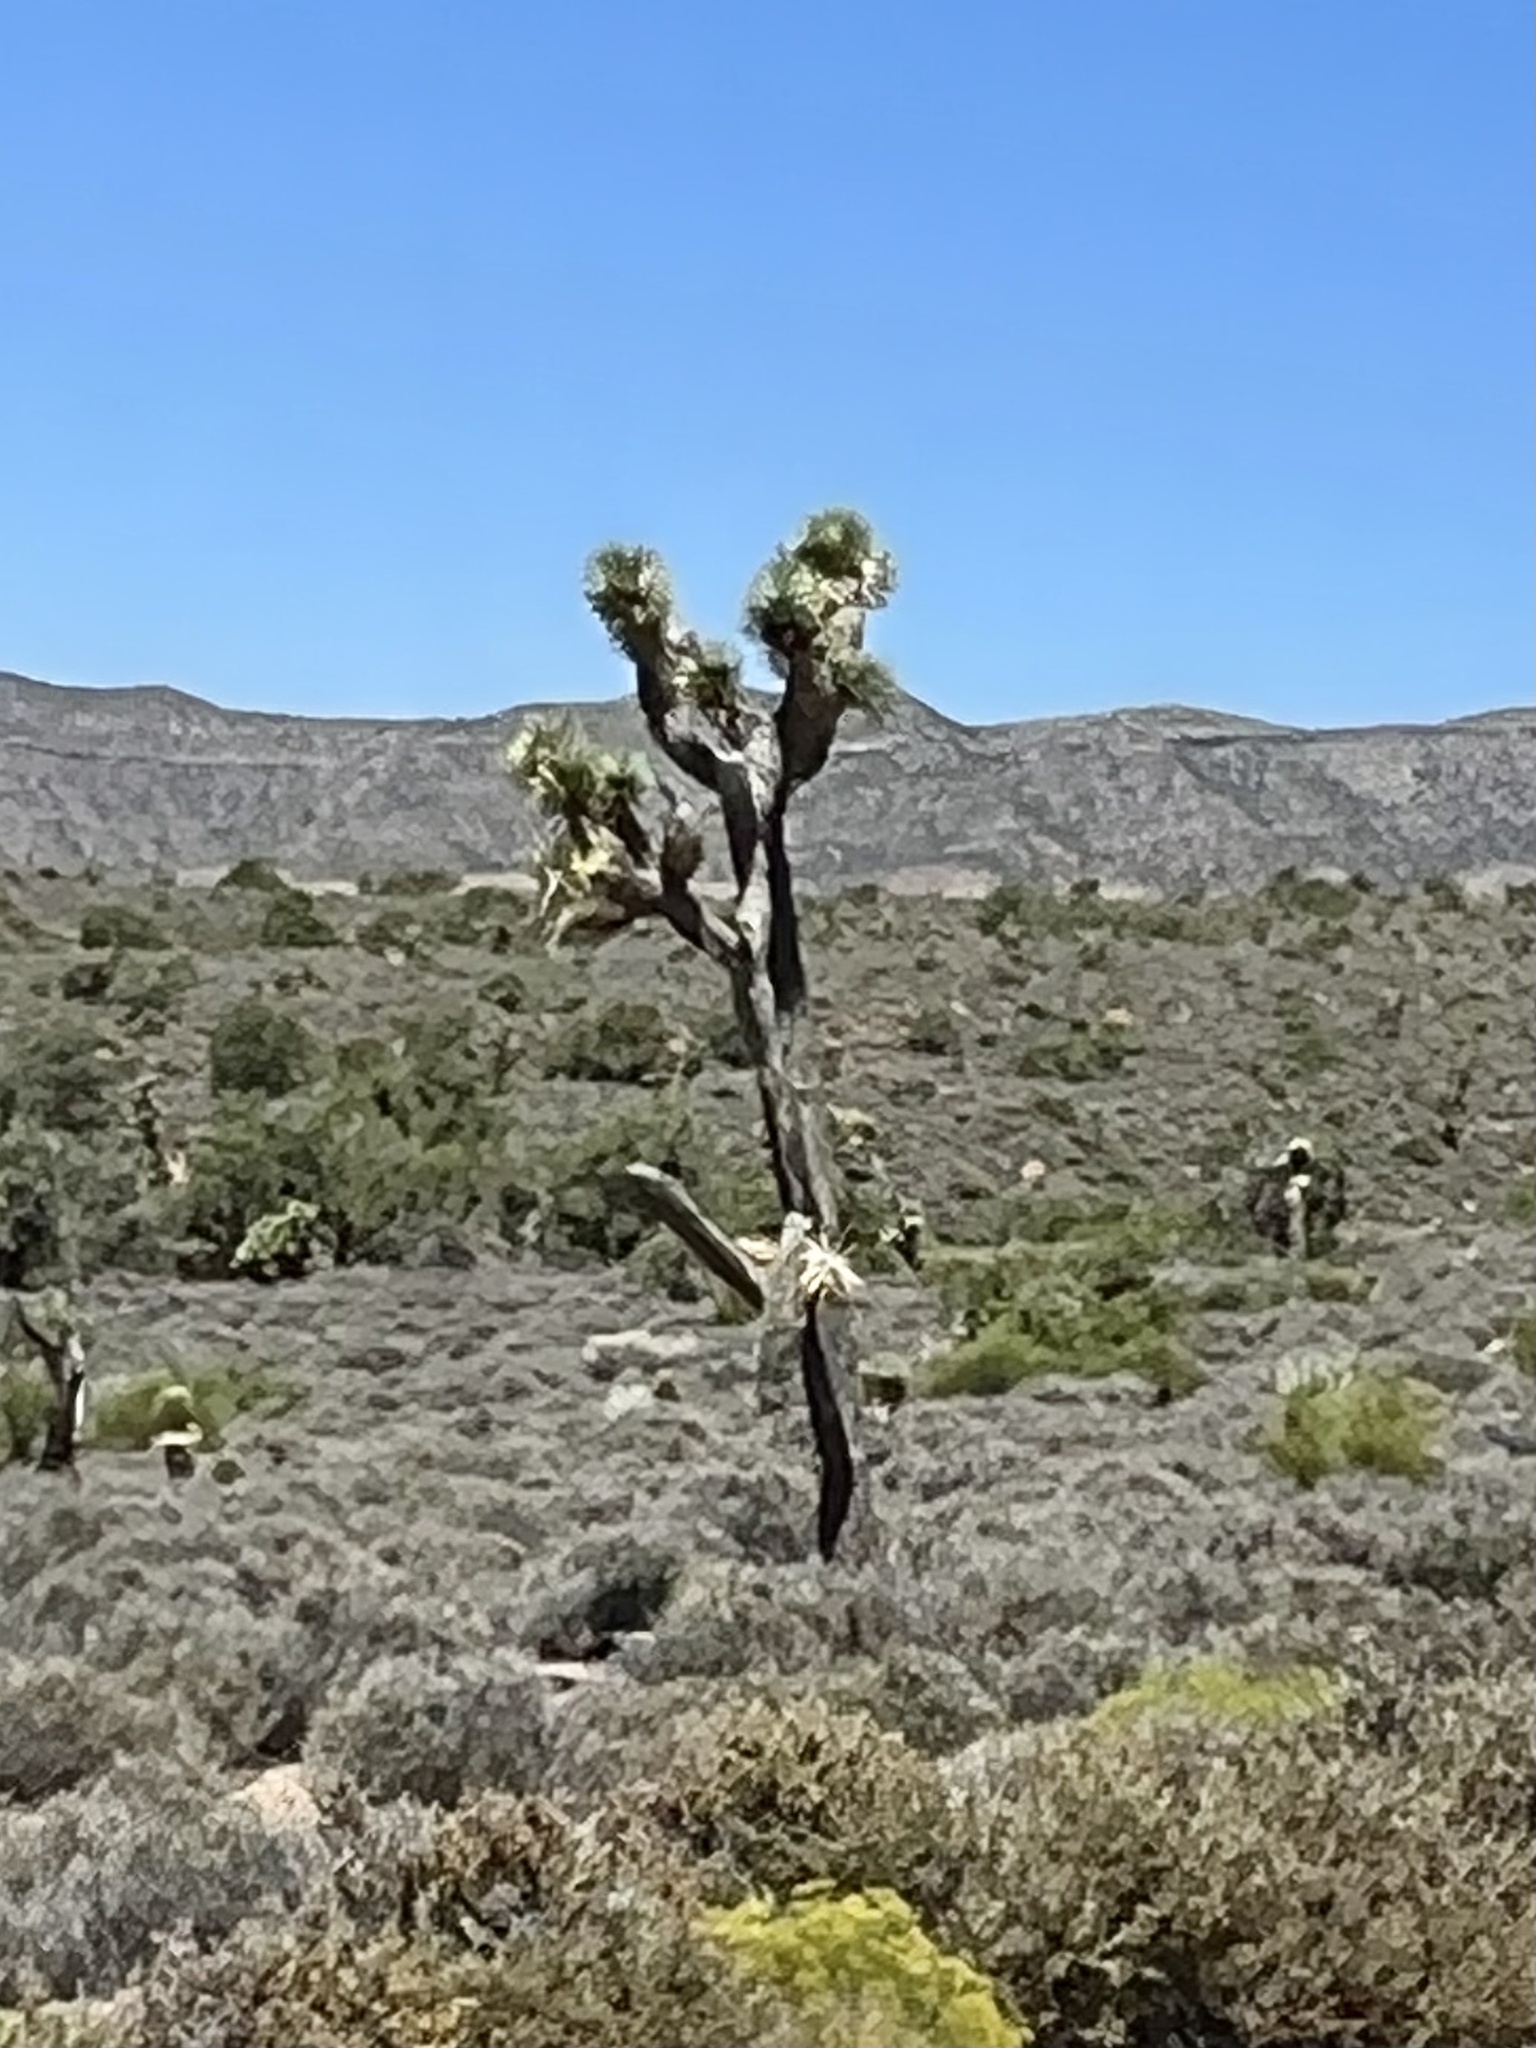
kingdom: Plantae
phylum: Tracheophyta
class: Liliopsida
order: Asparagales
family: Asparagaceae
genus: Yucca
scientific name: Yucca brevifolia
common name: Joshua tree
